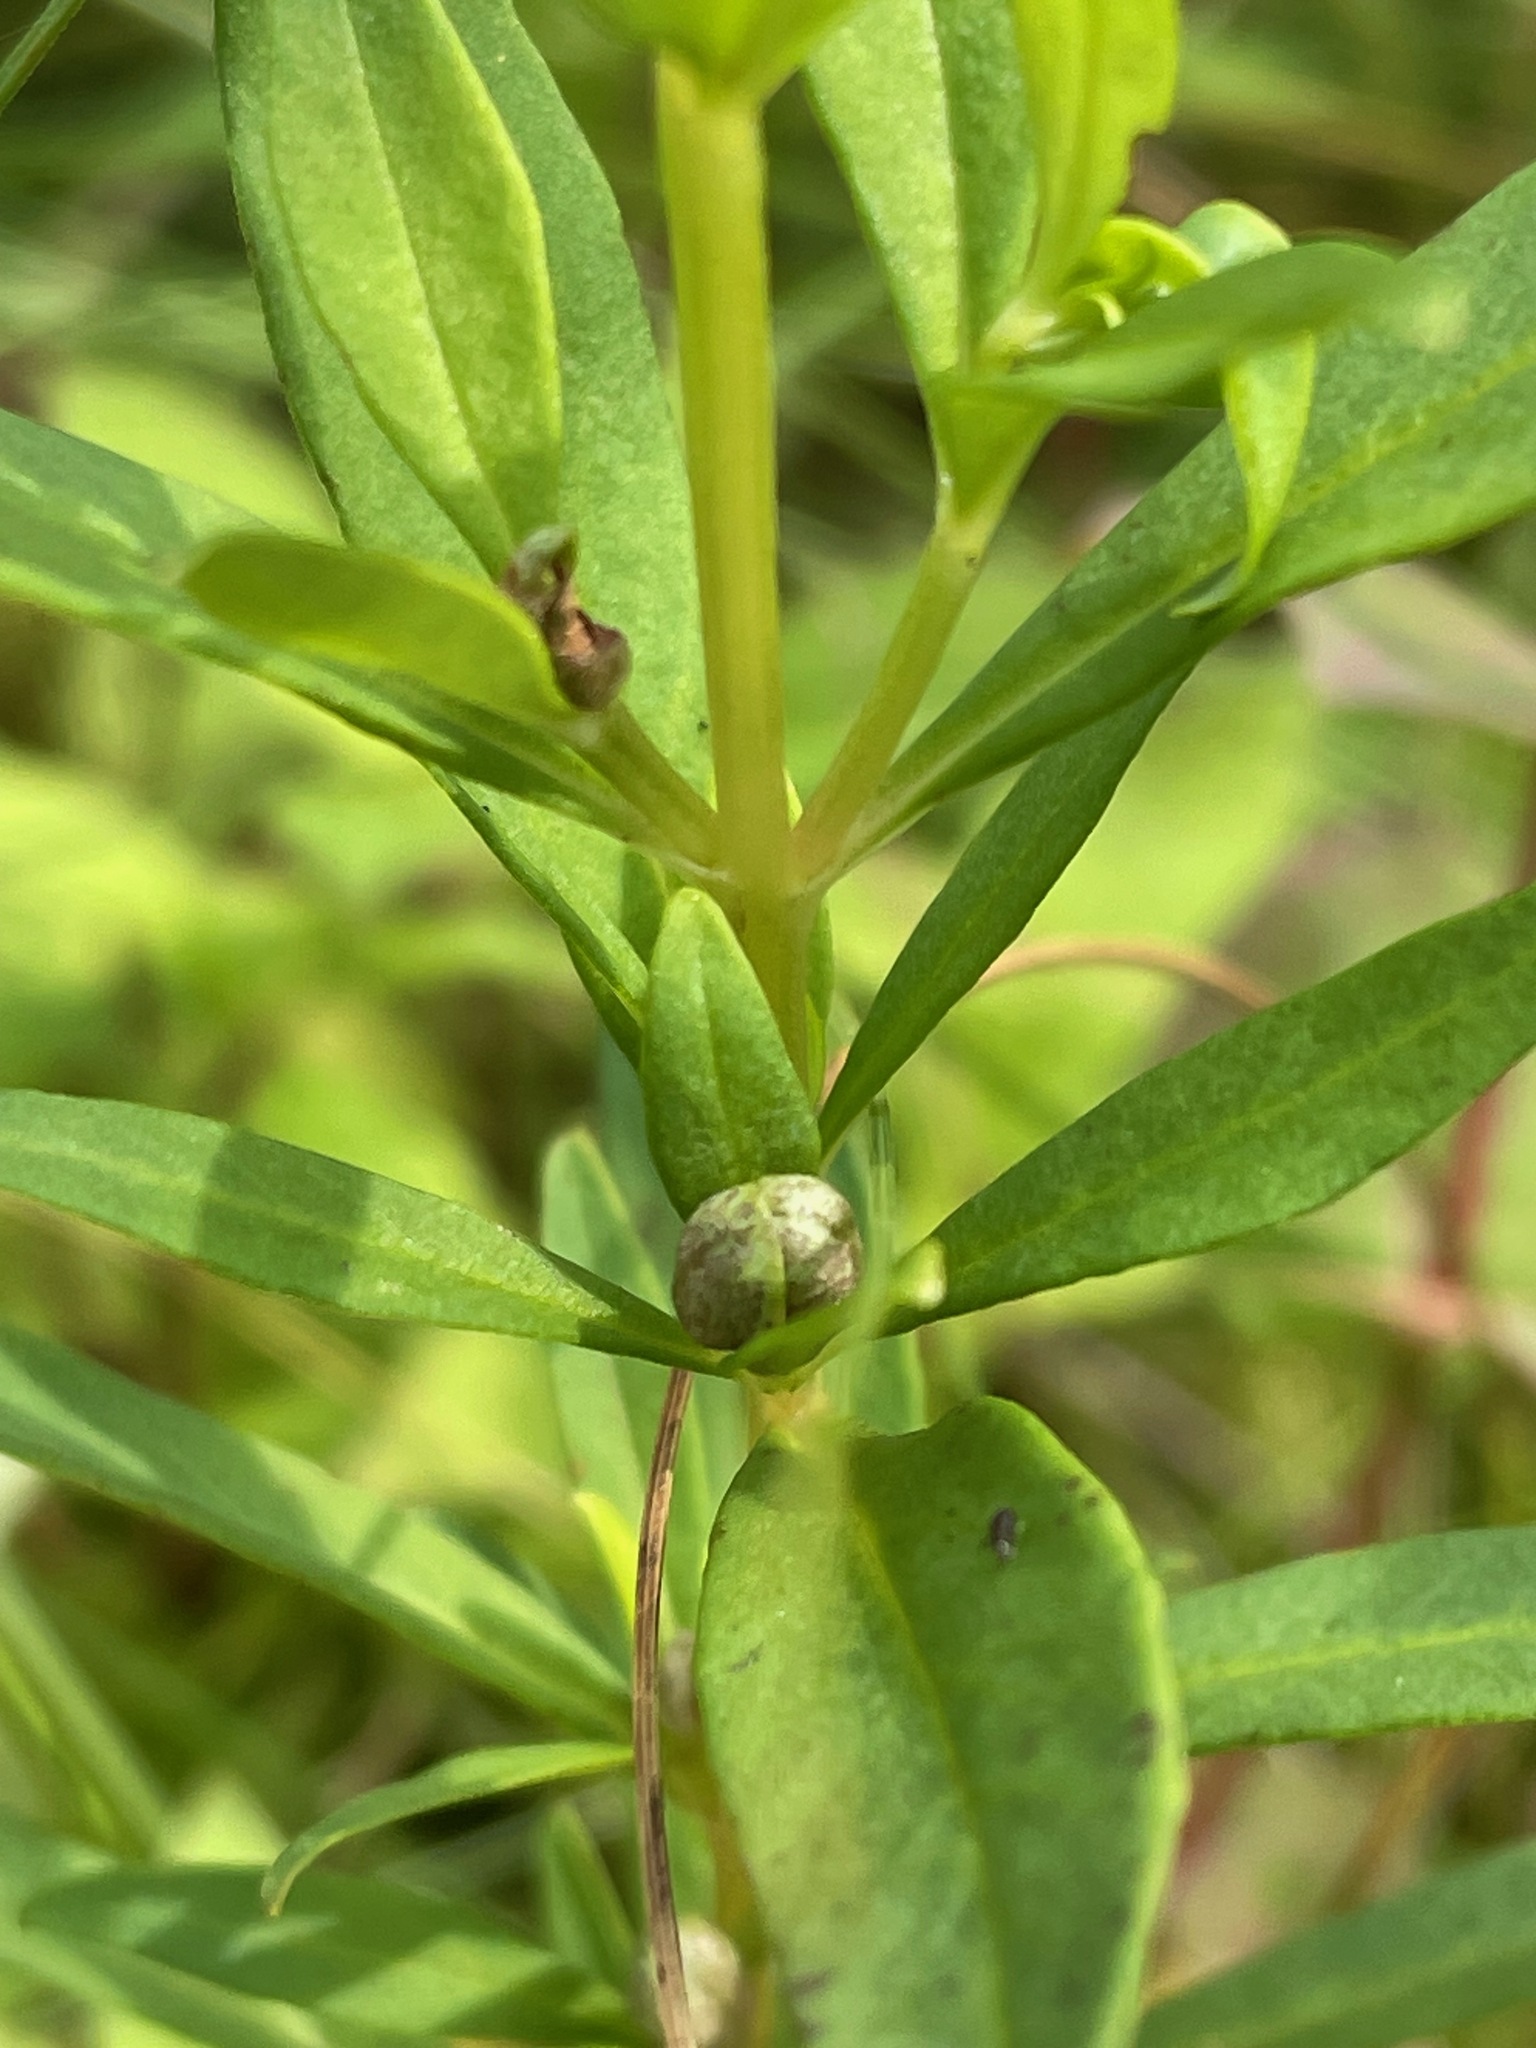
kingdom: Plantae
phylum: Tracheophyta
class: Magnoliopsida
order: Ericales
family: Primulaceae
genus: Lysimachia
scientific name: Lysimachia terrestris
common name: Lake loosestrife
